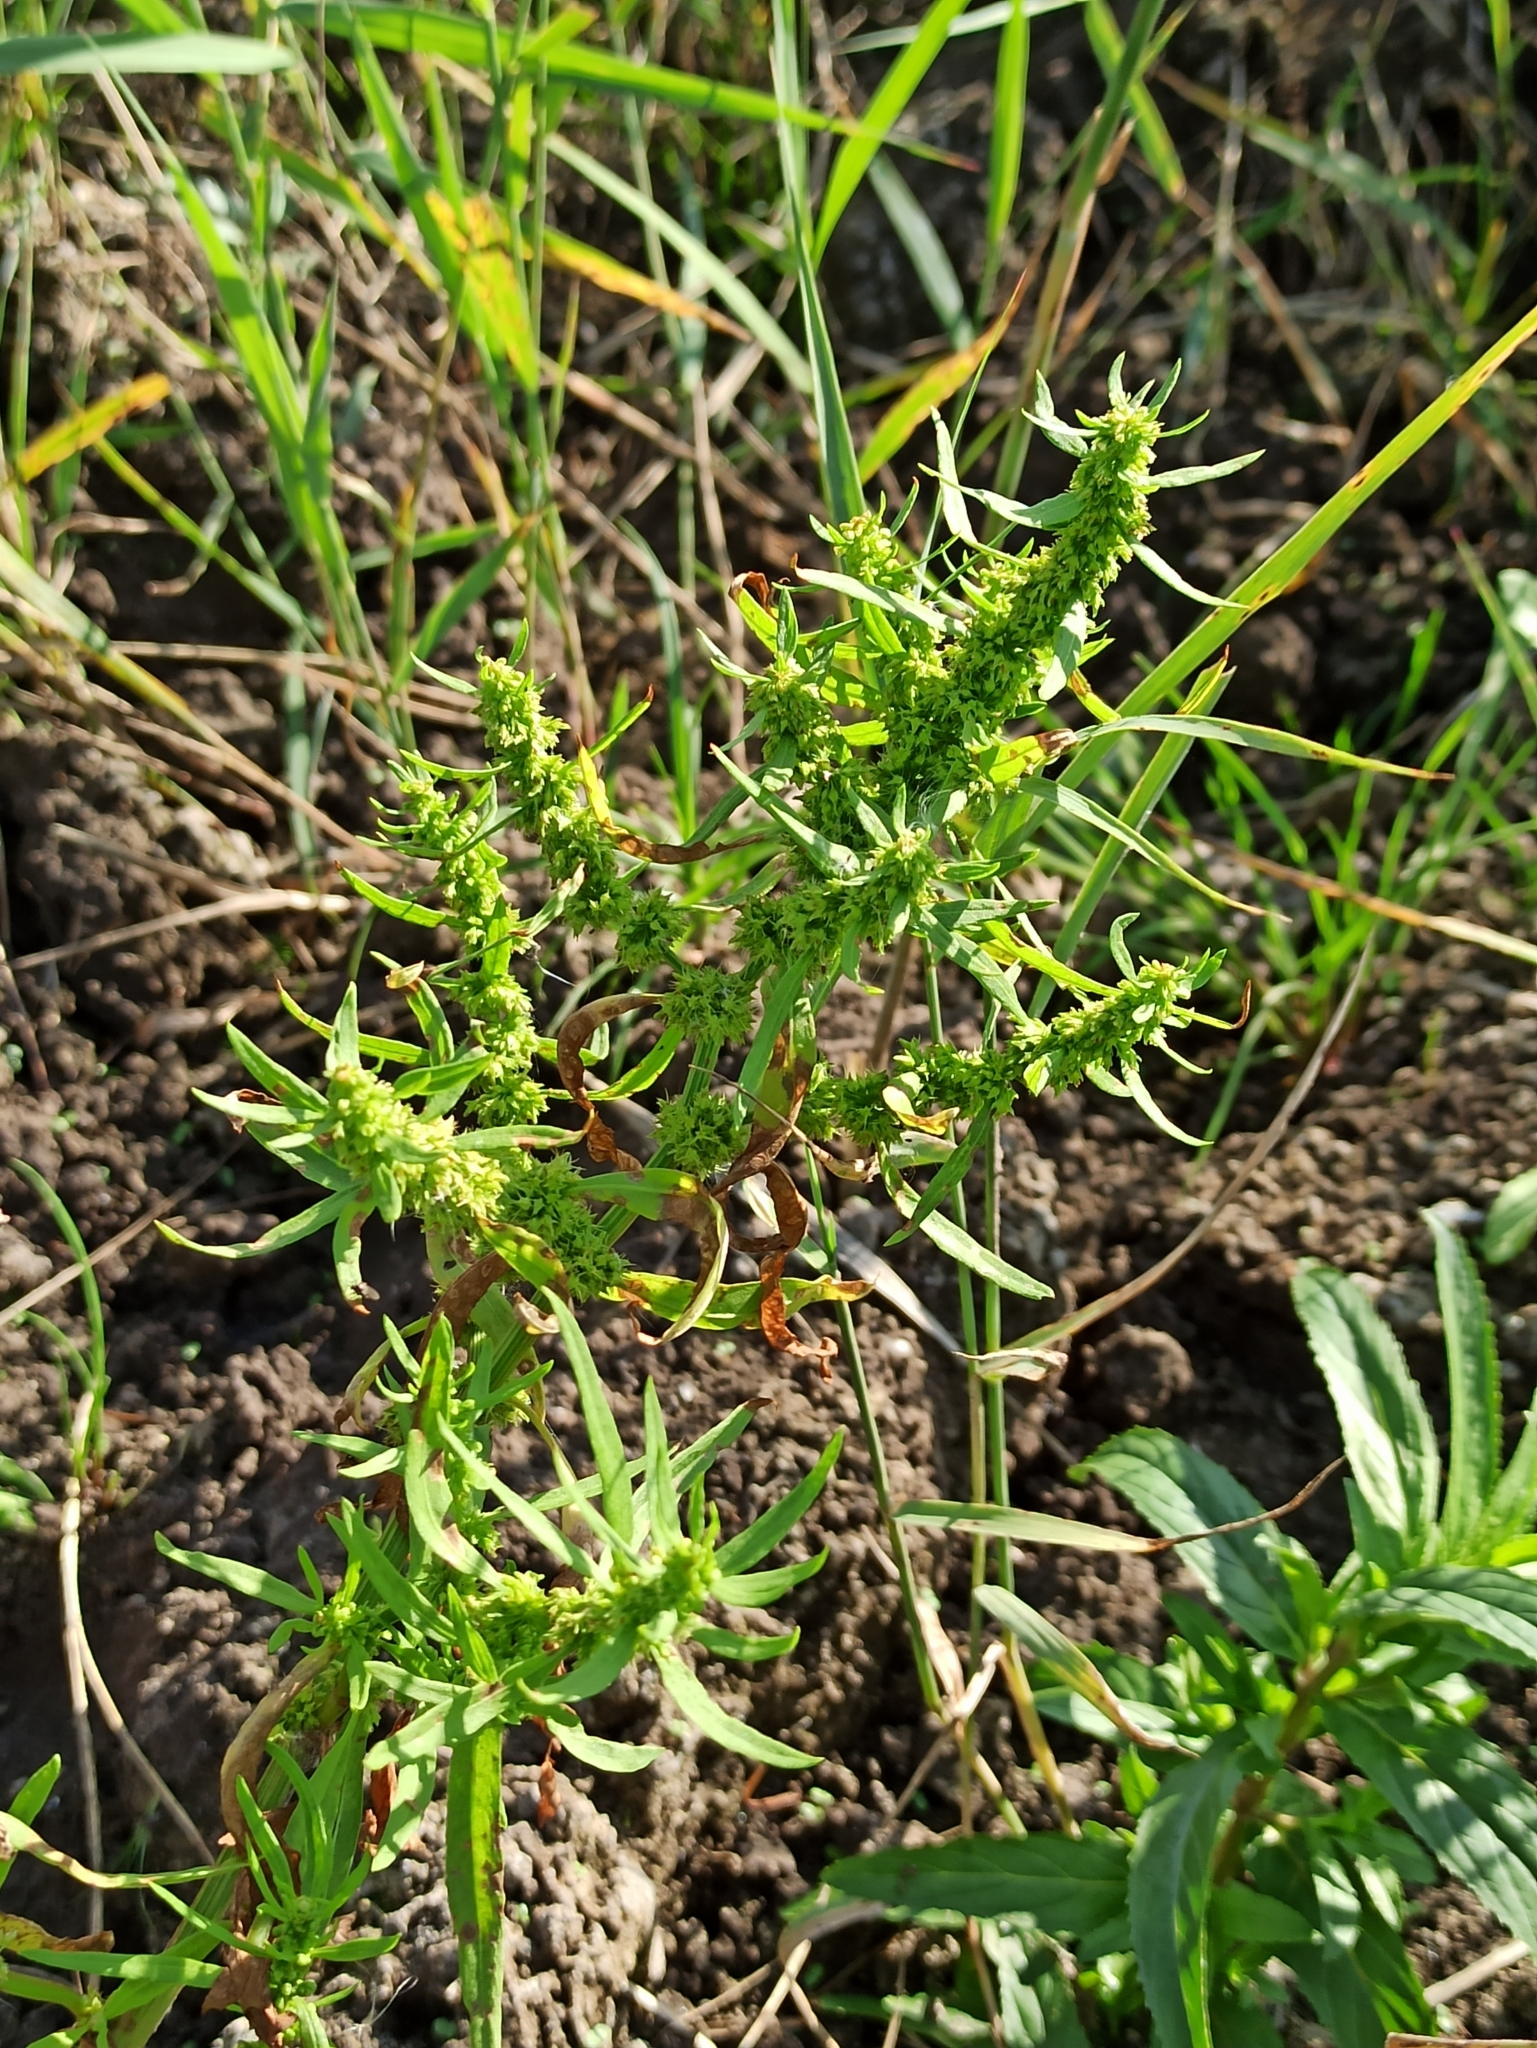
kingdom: Plantae
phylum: Tracheophyta
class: Magnoliopsida
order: Caryophyllales
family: Polygonaceae
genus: Rumex
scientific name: Rumex maritimus
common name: Golden dock
